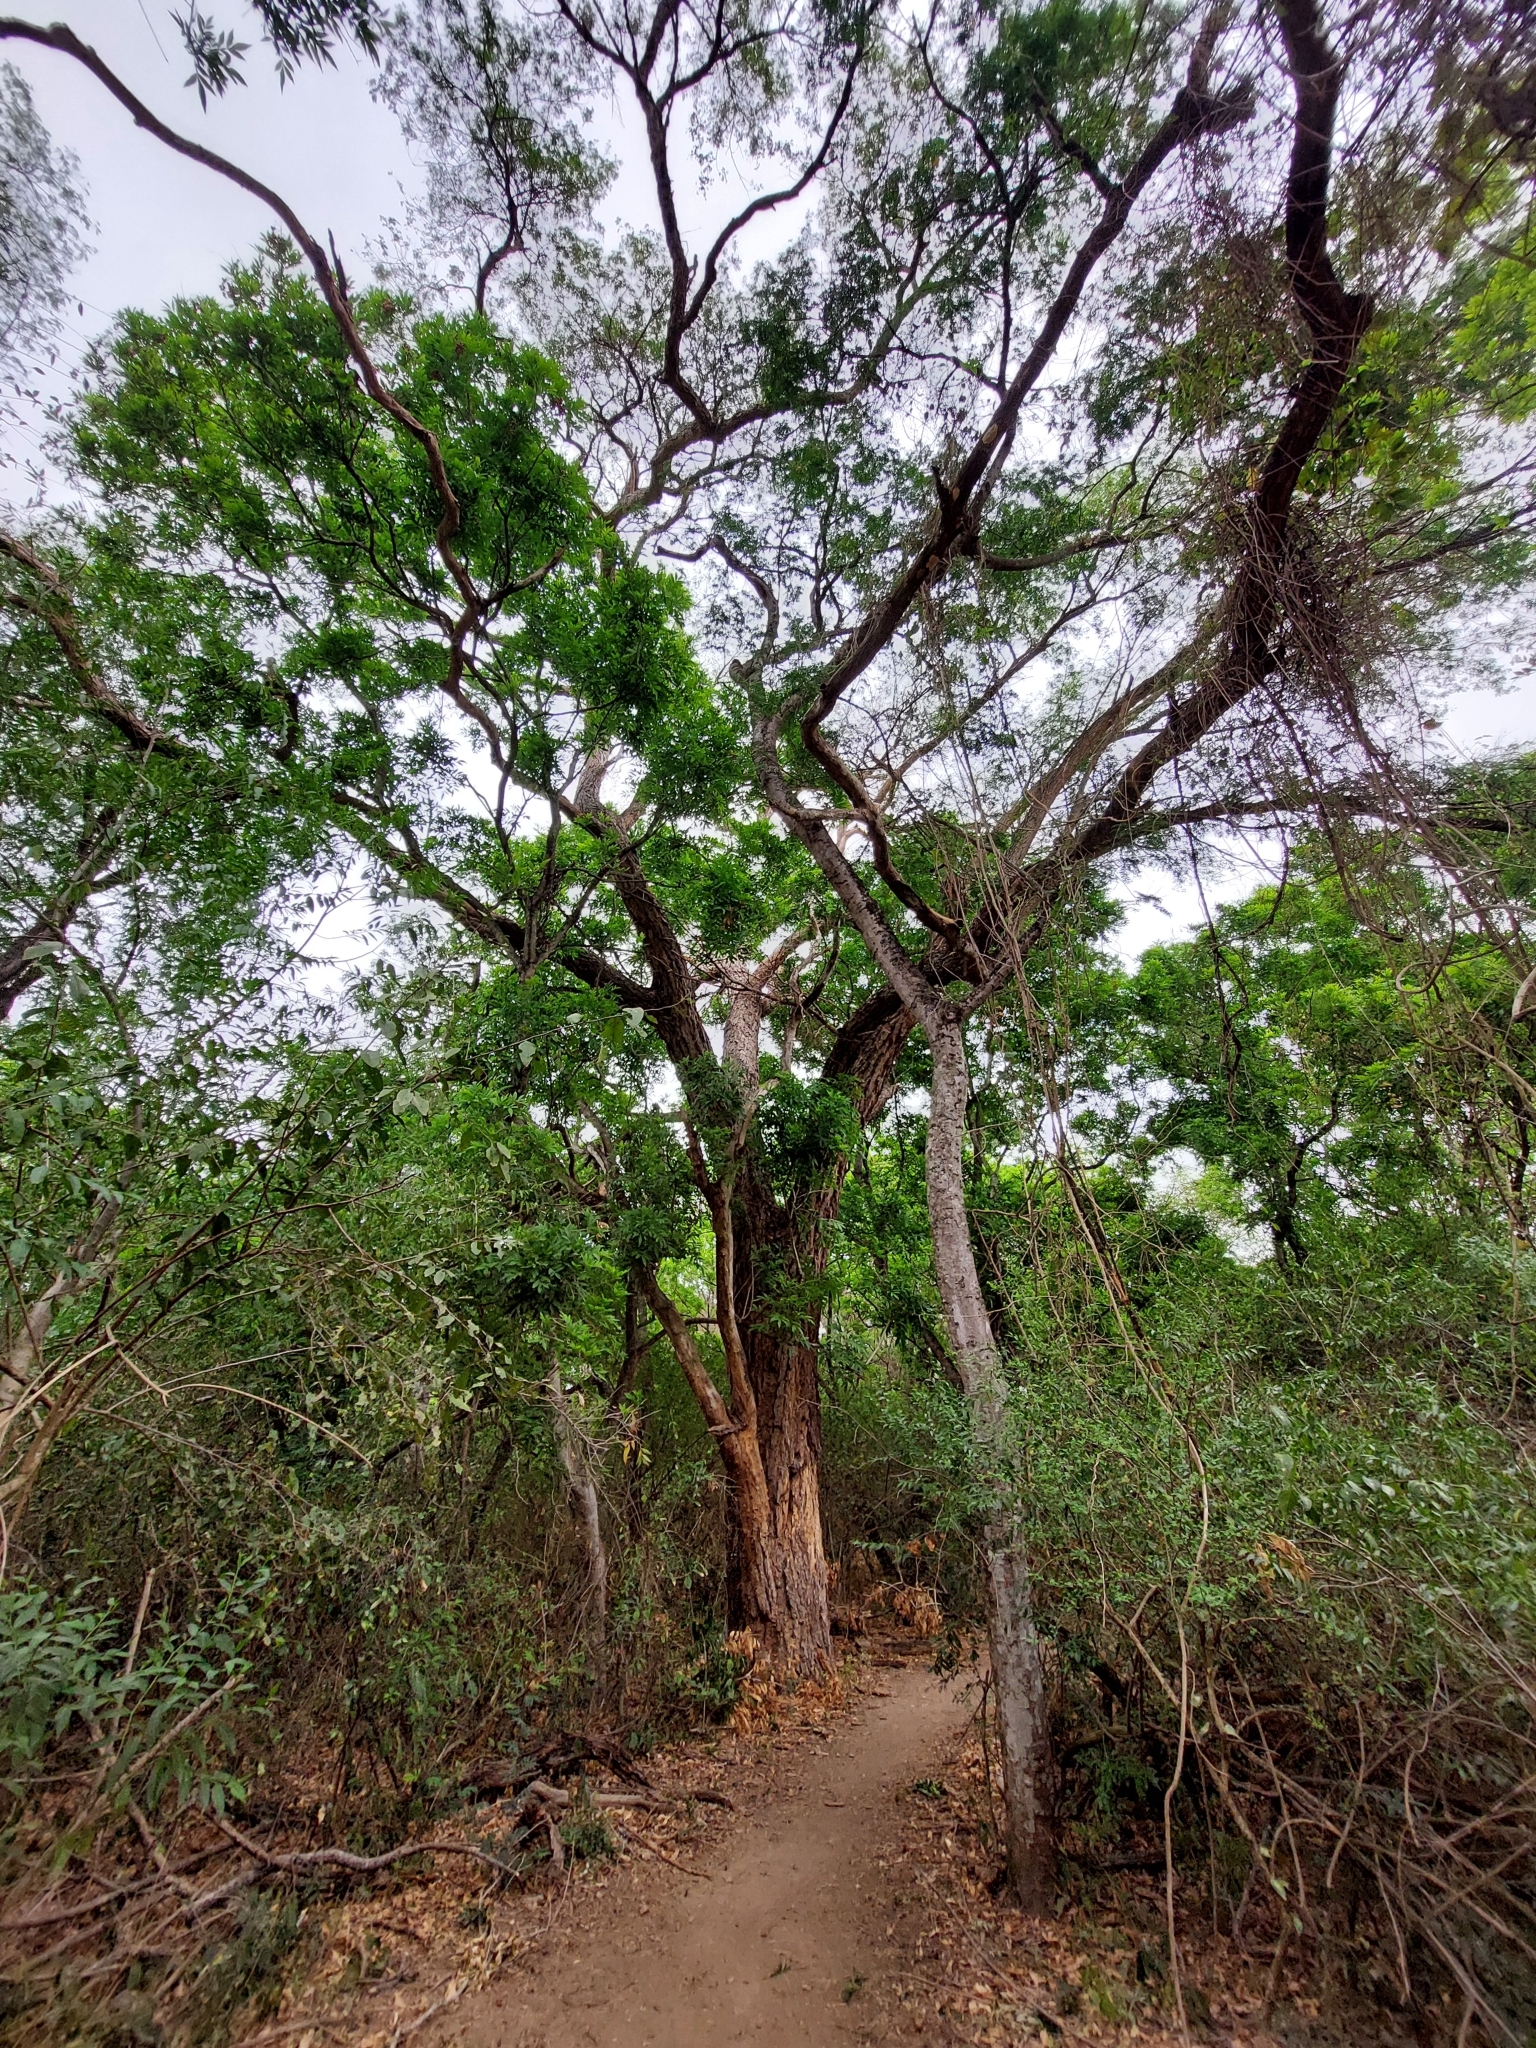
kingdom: Plantae
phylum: Tracheophyta
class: Magnoliopsida
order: Fabales
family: Fabaceae
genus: Chloroleucon
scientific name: Chloroleucon tenuiflorum
